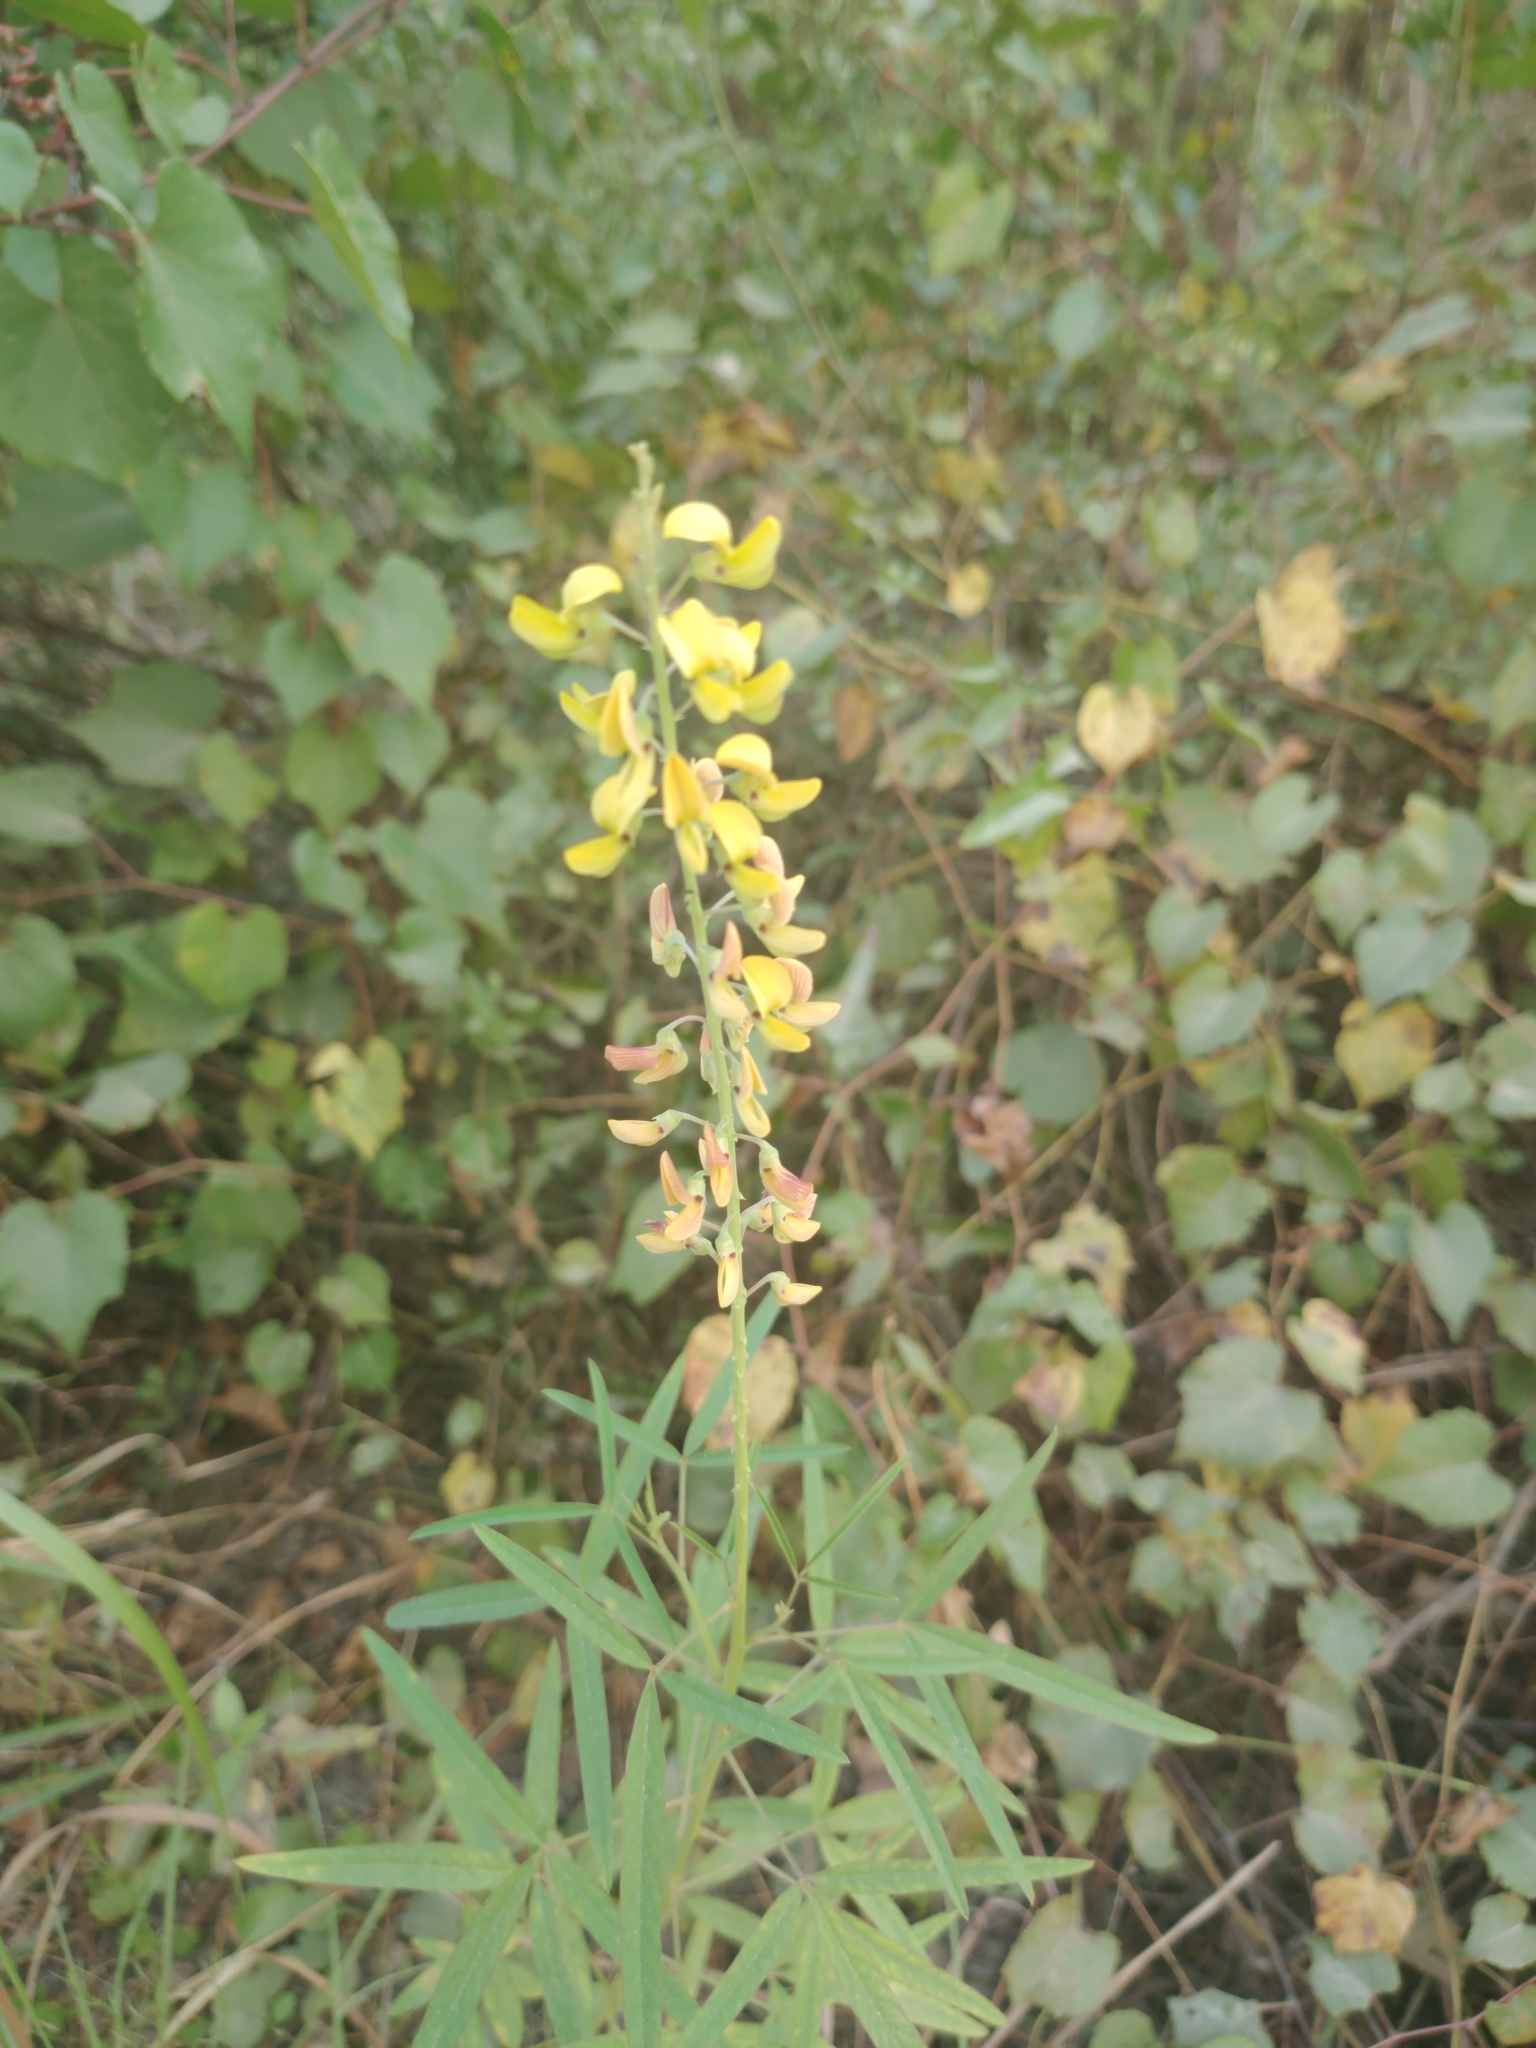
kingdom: Plantae
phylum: Tracheophyta
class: Magnoliopsida
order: Fabales
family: Fabaceae
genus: Crotalaria
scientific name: Crotalaria lanceolata
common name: Lanceleaf rattlebox
